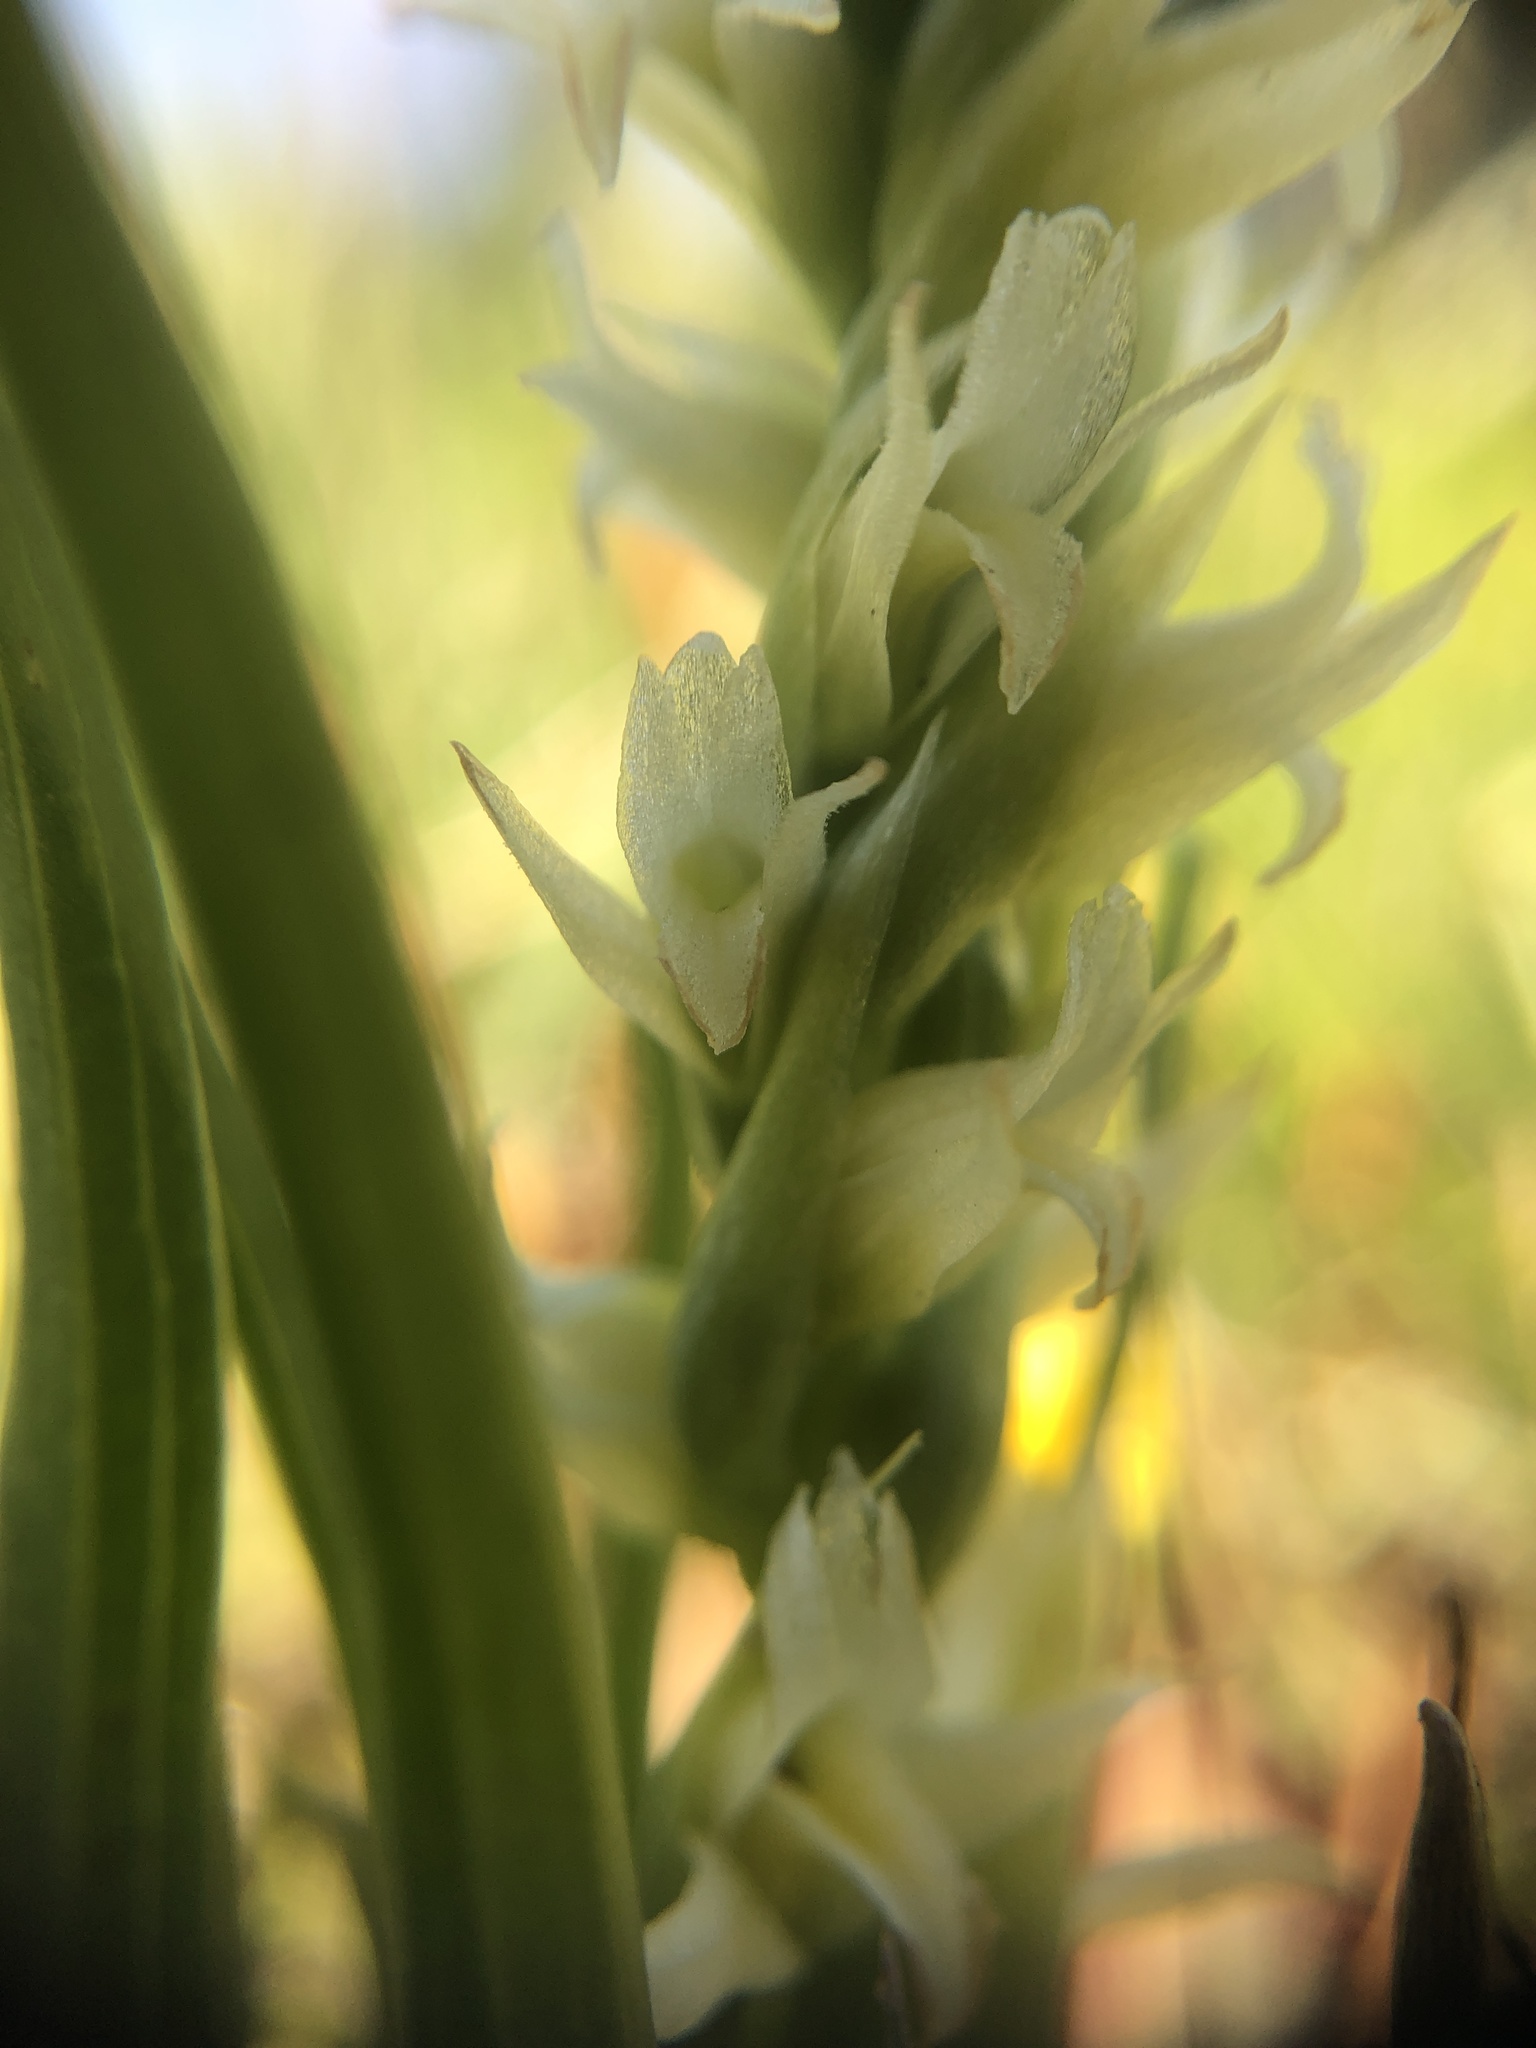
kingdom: Plantae
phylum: Tracheophyta
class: Liliopsida
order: Asparagales
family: Orchidaceae
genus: Spiranthes
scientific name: Spiranthes stellata
